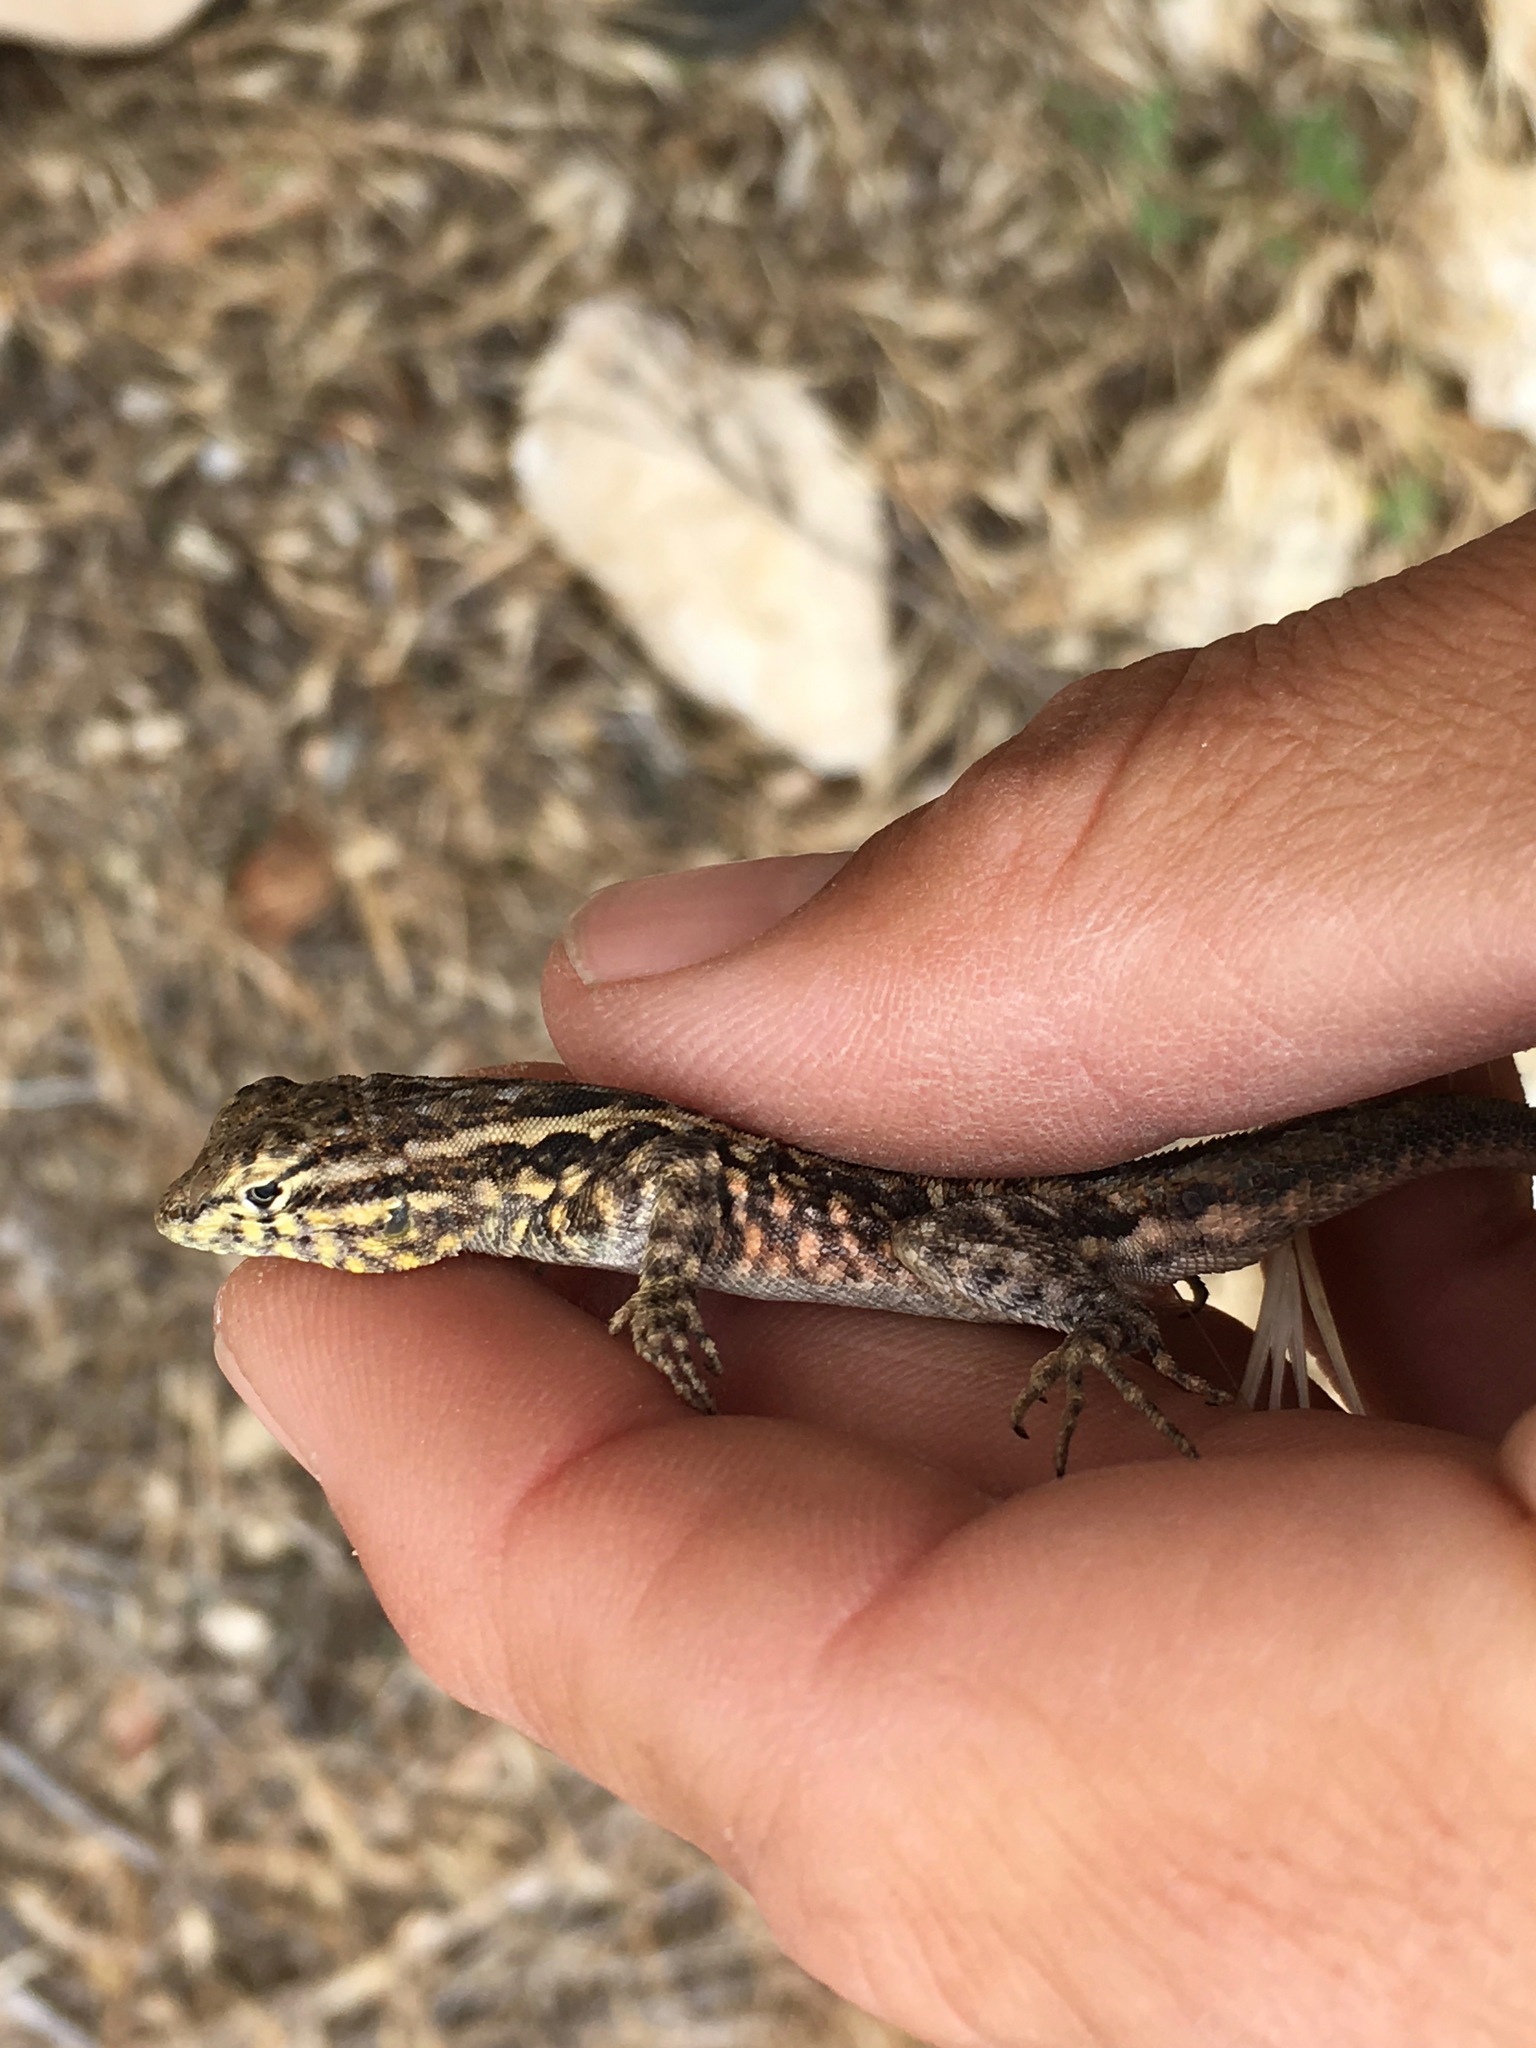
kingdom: Animalia
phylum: Chordata
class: Squamata
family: Phrynosomatidae
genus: Uta
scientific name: Uta stansburiana
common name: Side-blotched lizard
